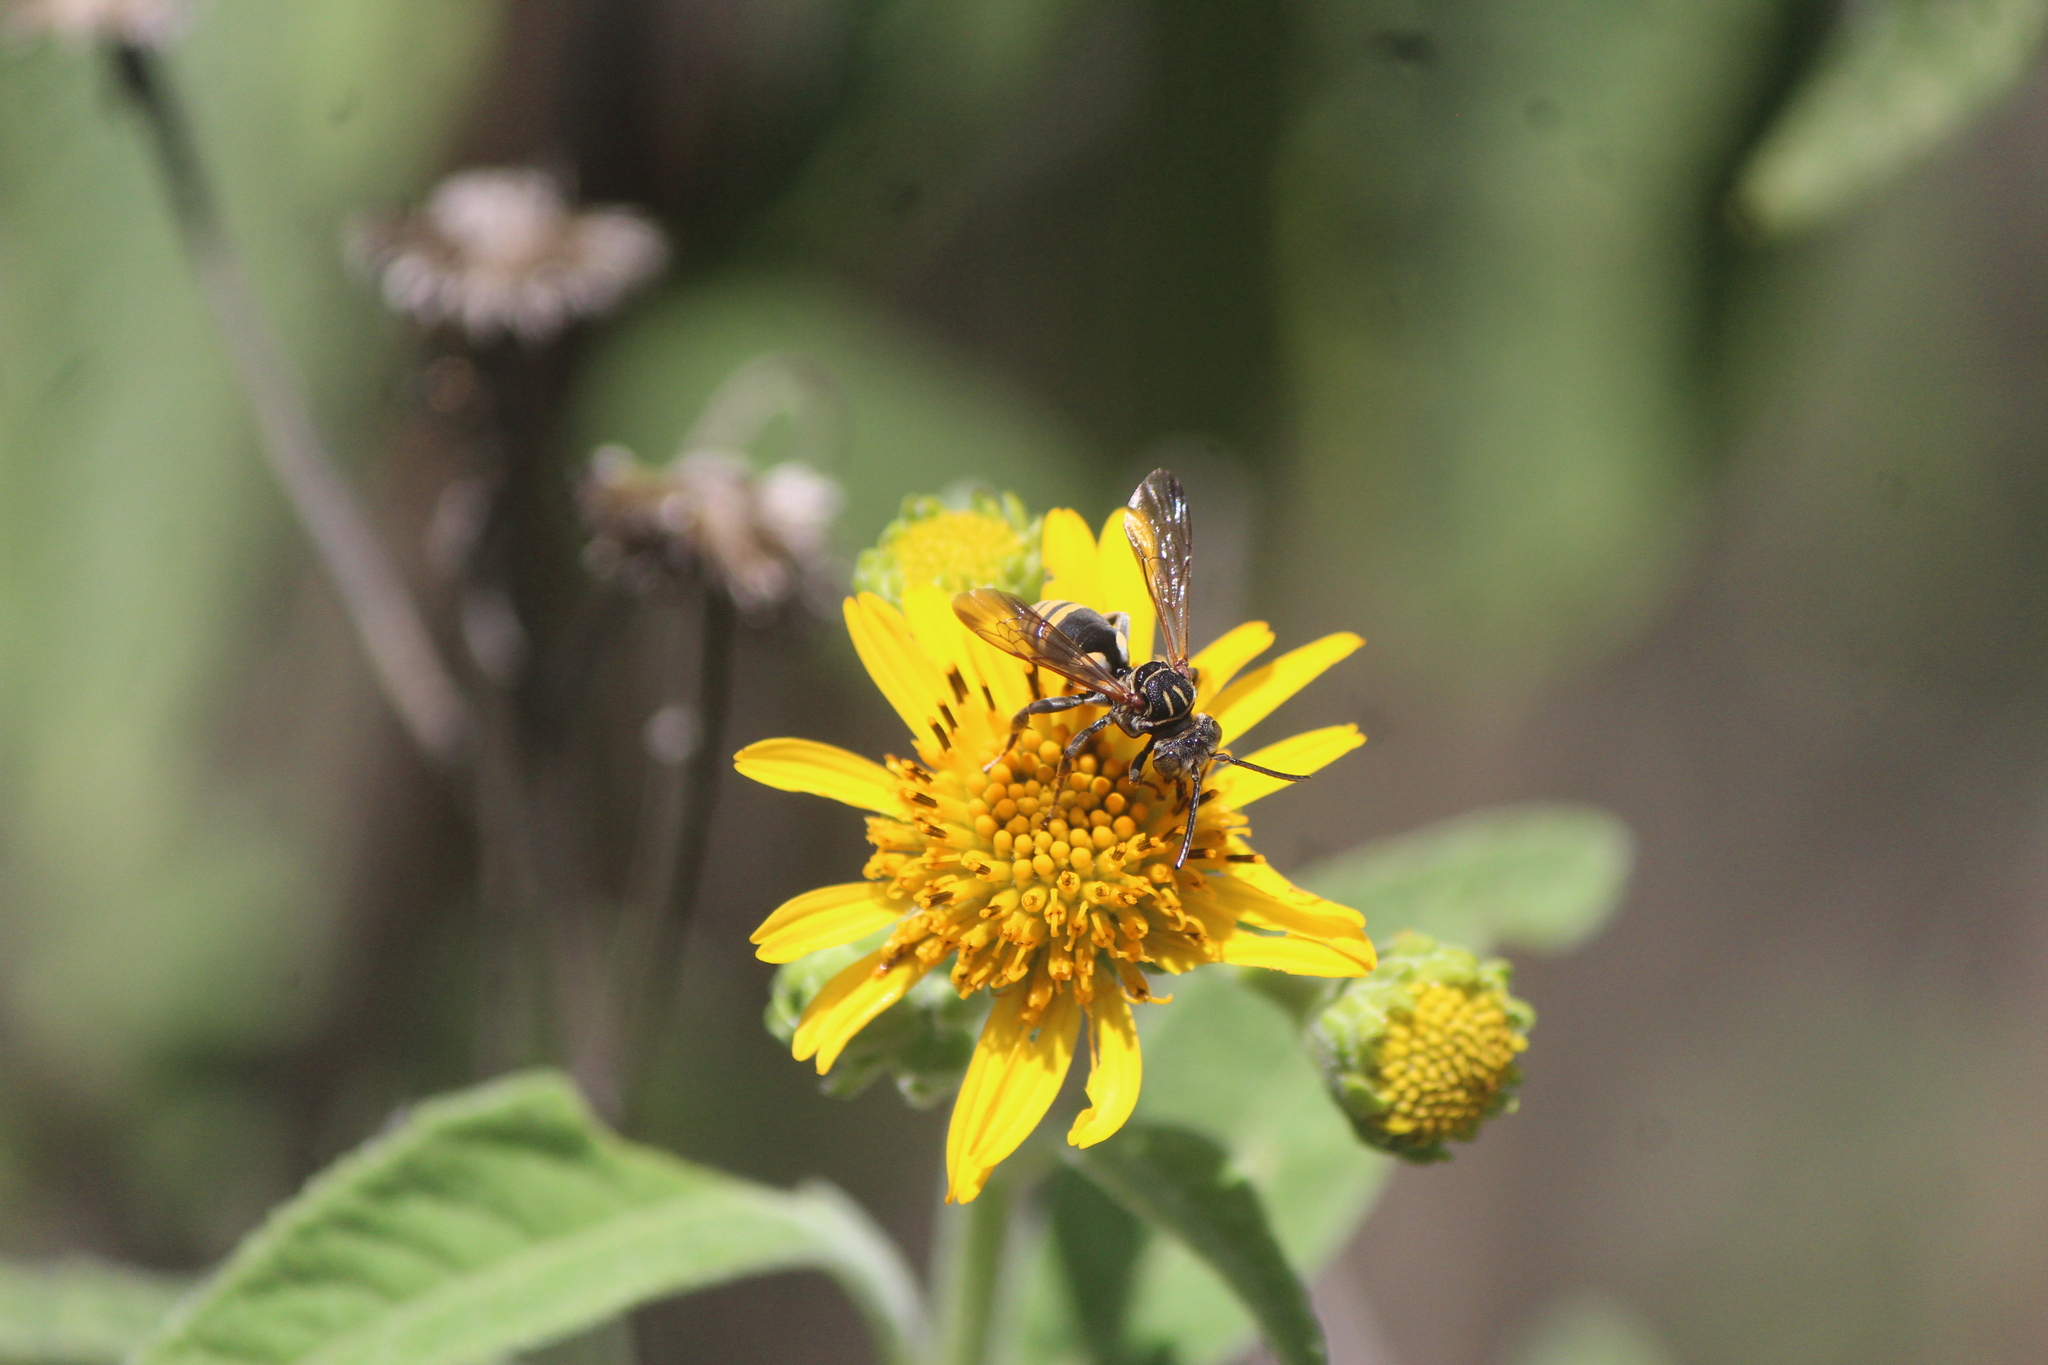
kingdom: Animalia
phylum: Arthropoda
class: Insecta
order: Hymenoptera
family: Apidae
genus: Triepeolus
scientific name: Triepeolus bilineatus
